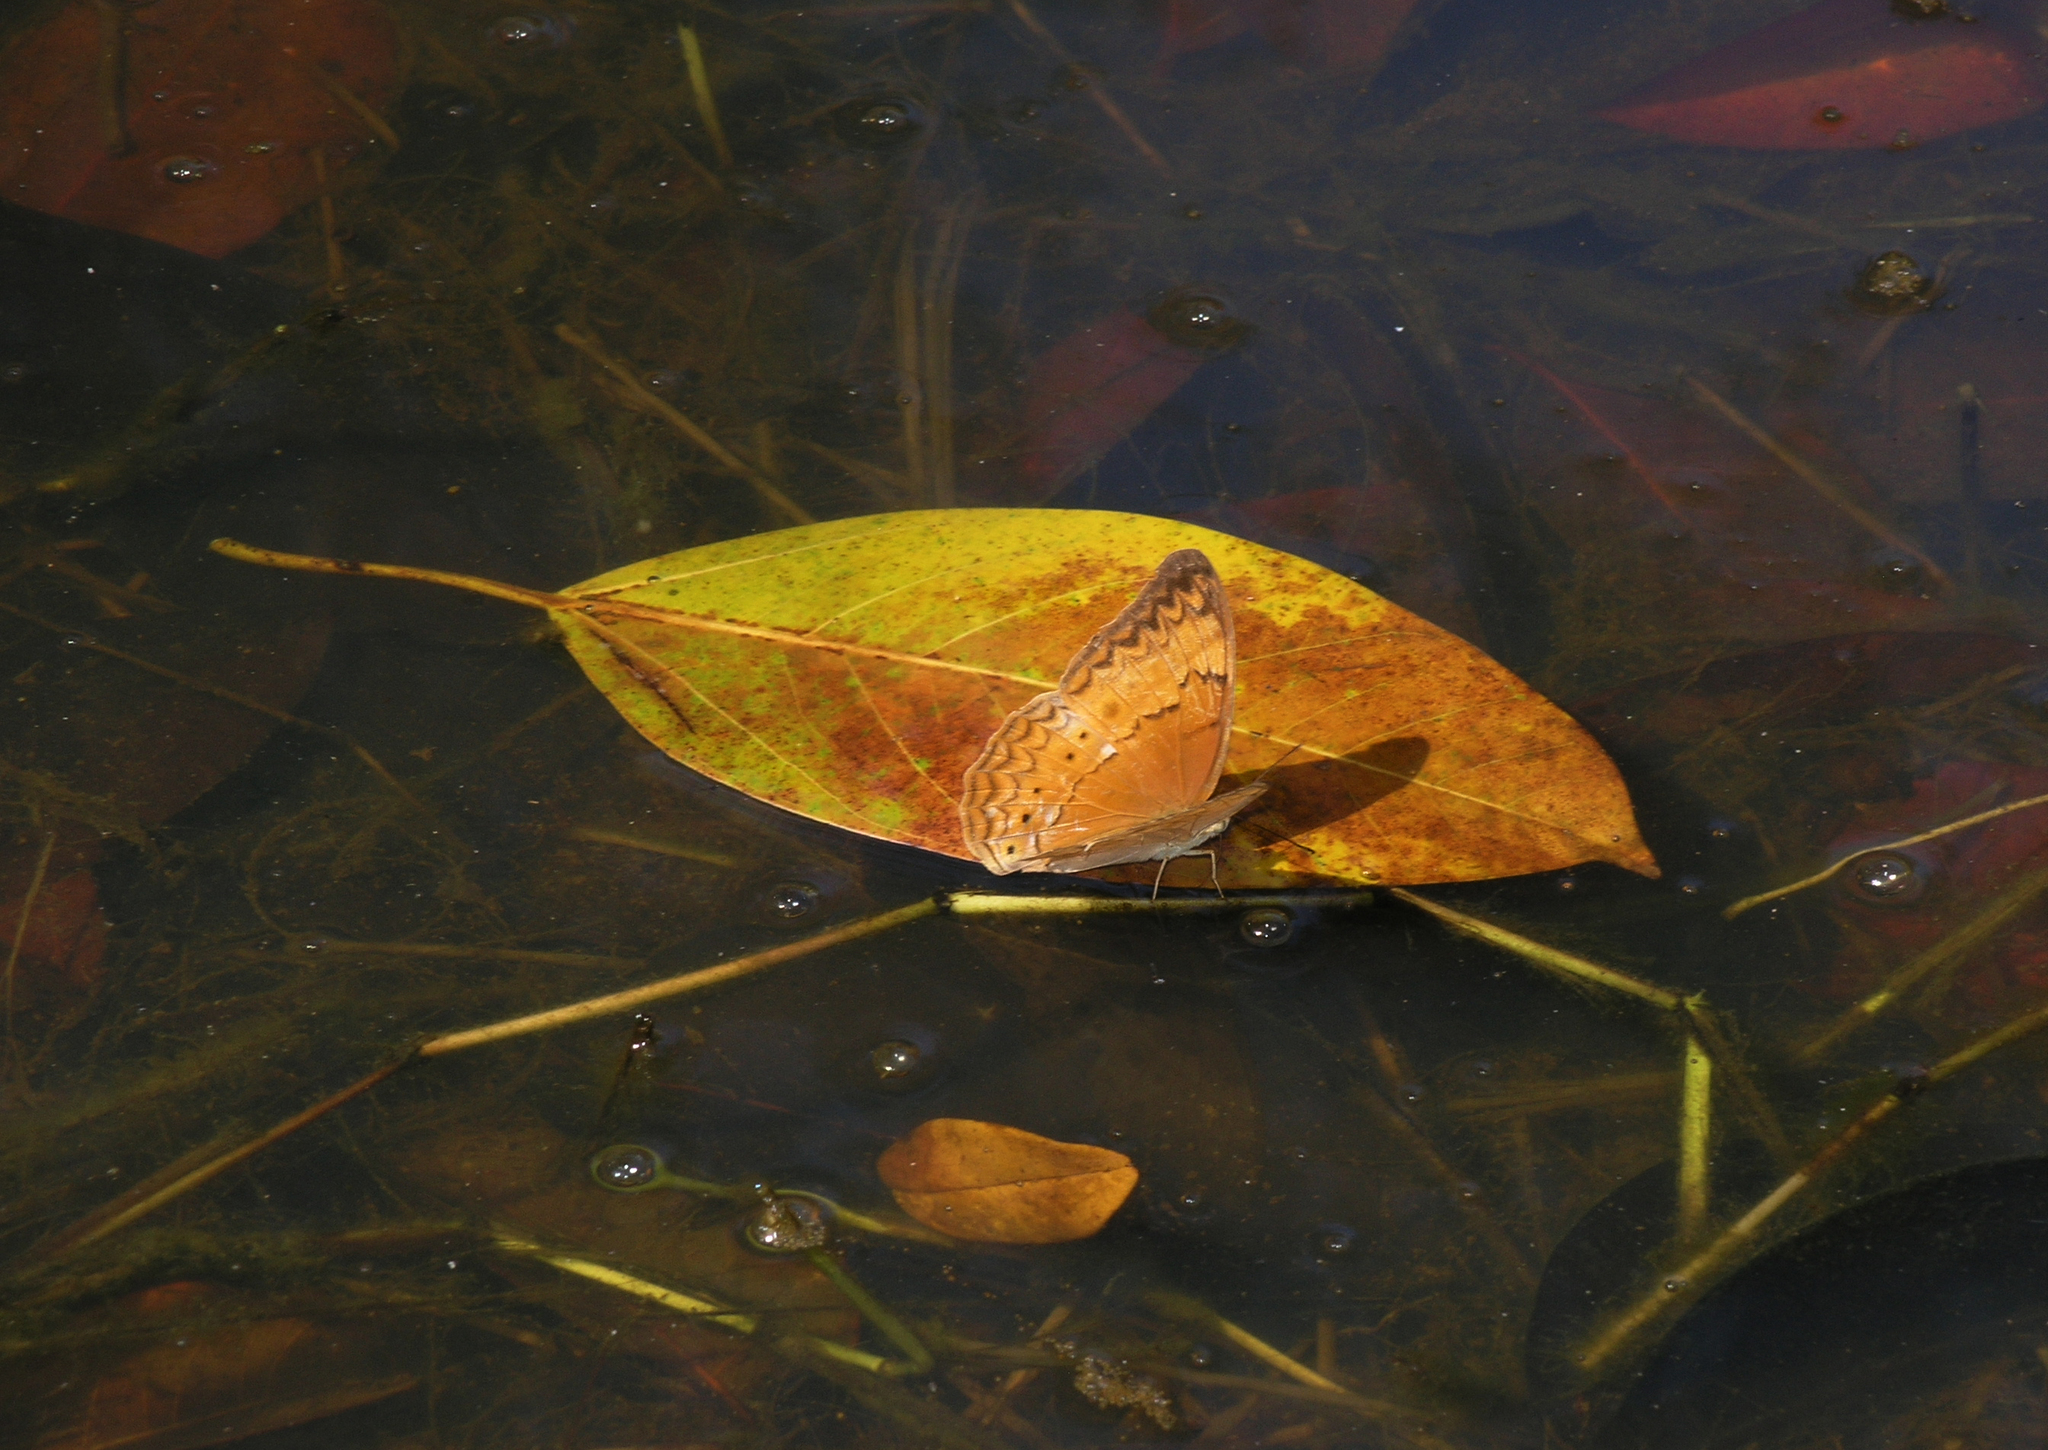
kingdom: Animalia
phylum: Arthropoda
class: Insecta
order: Lepidoptera
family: Nymphalidae
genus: Cirrochroa
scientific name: Cirrochroa tyche
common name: Common yeoman
